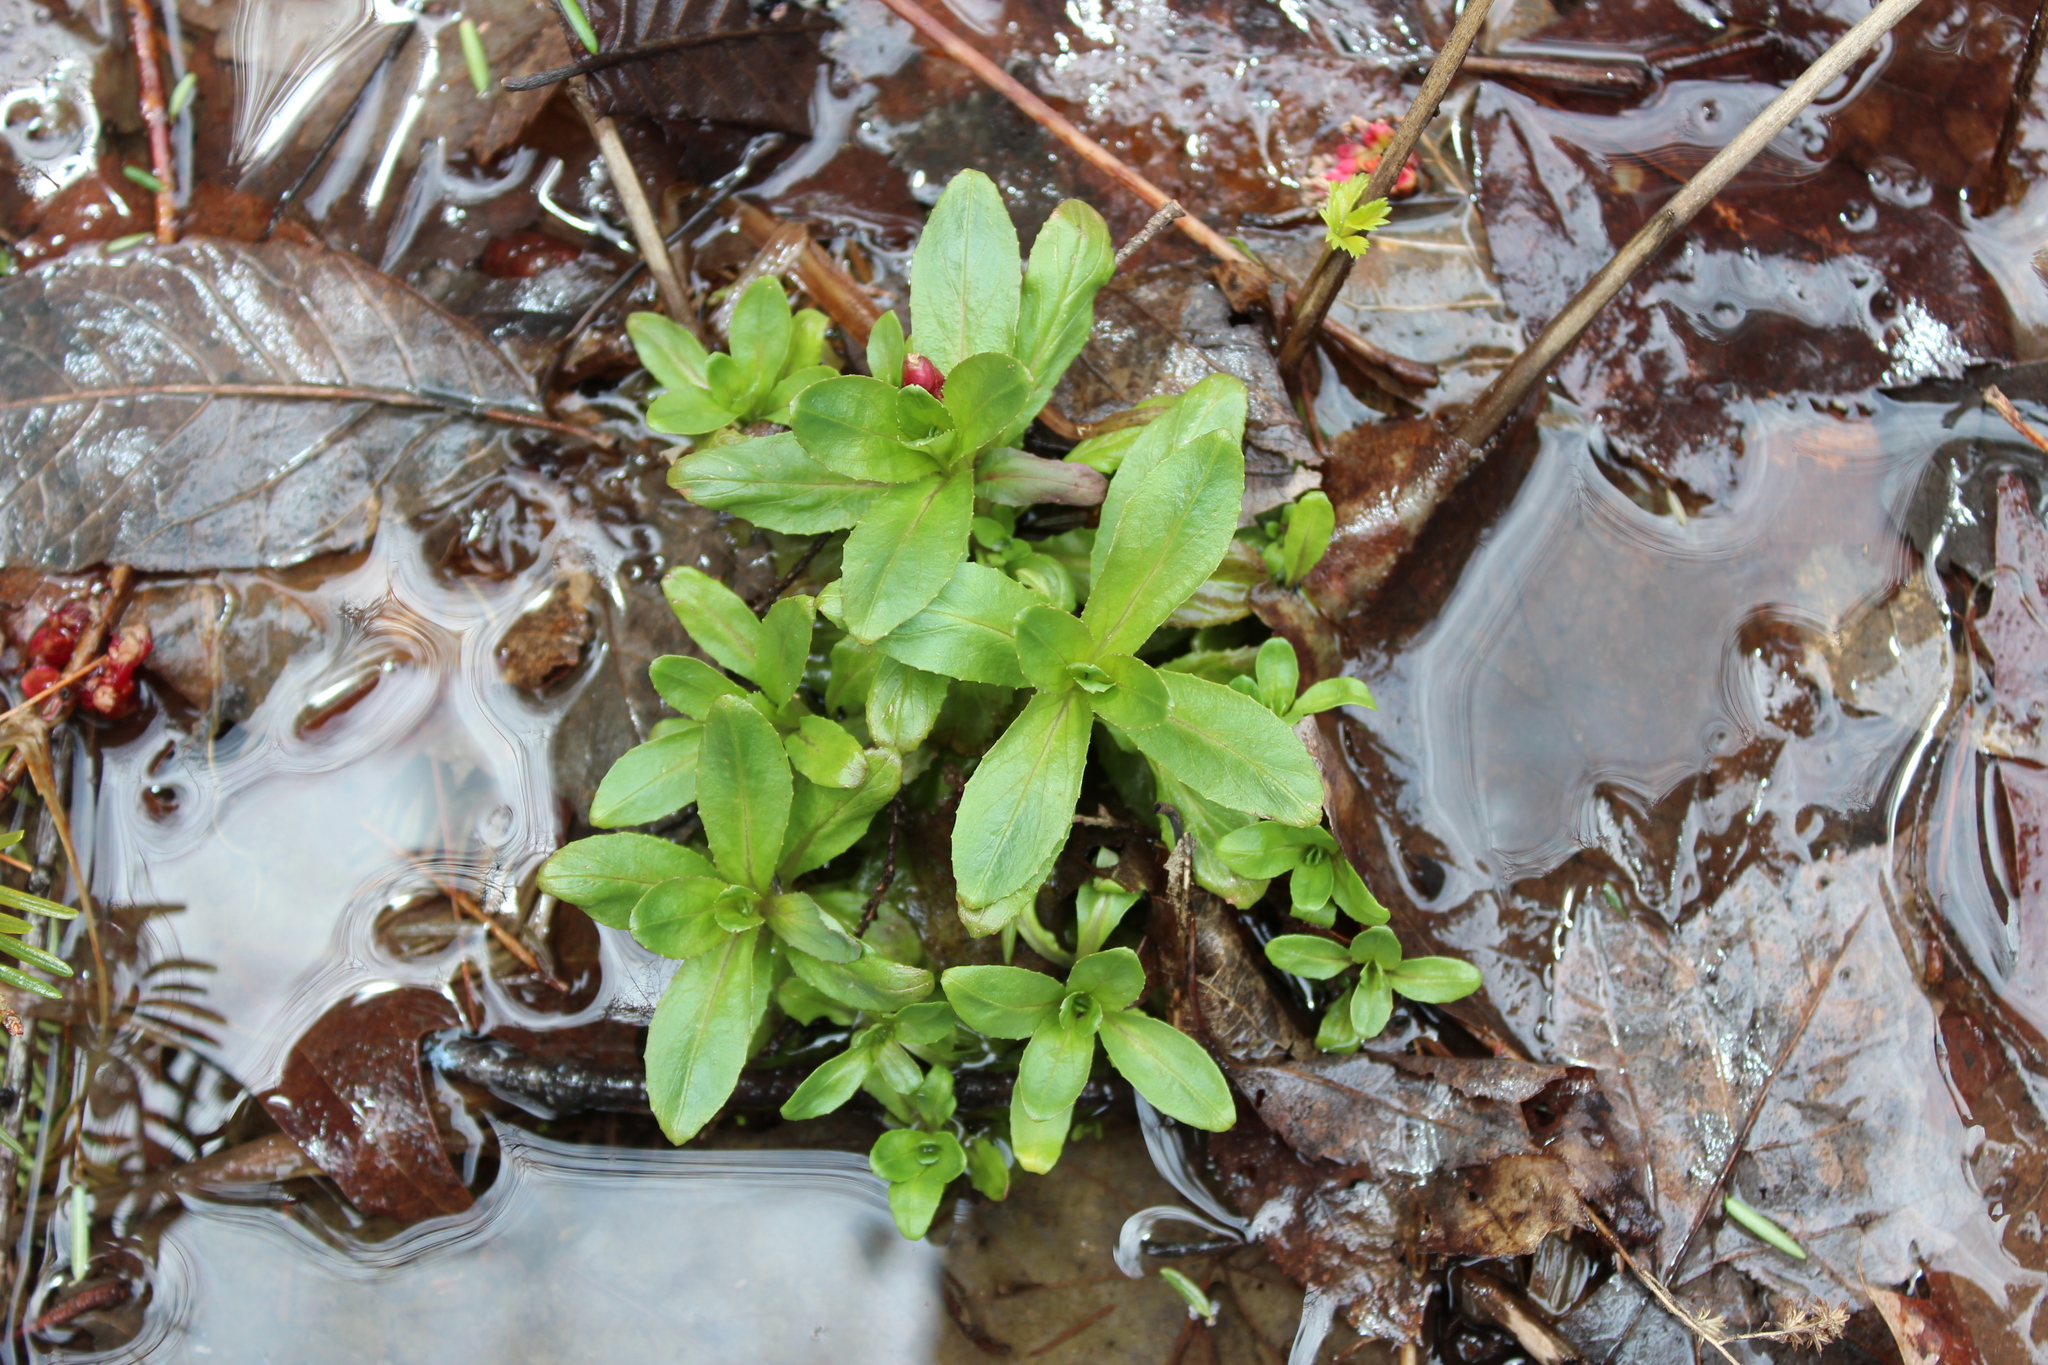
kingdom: Plantae
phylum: Tracheophyta
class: Magnoliopsida
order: Saxifragales
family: Saxifragaceae
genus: Micranthes
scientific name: Micranthes pensylvanica
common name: Marsh saxifrage
